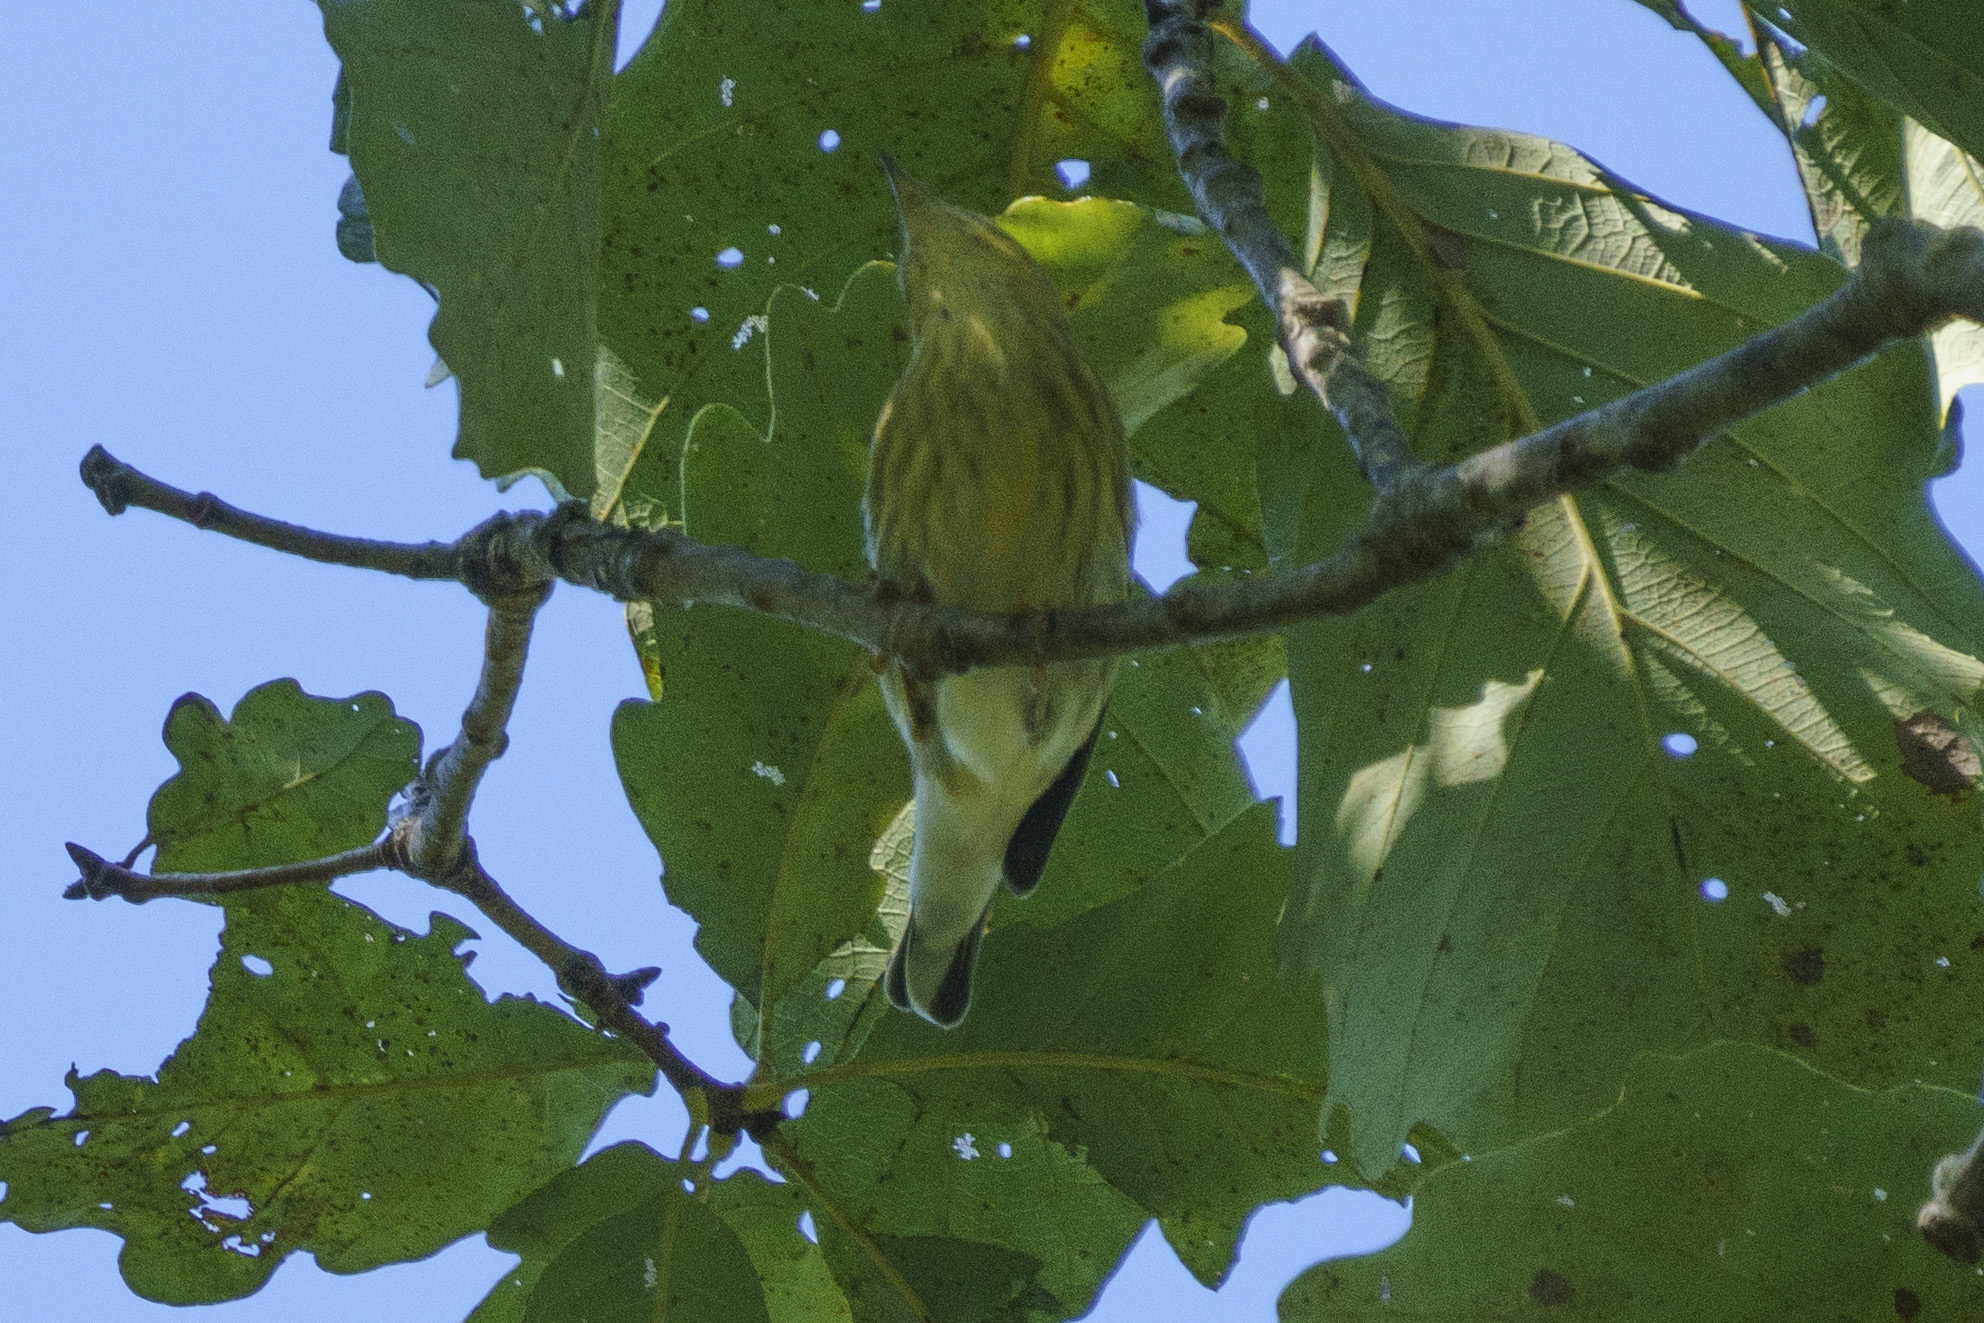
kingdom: Animalia
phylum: Chordata
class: Aves
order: Passeriformes
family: Parulidae
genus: Setophaga
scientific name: Setophaga tigrina
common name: Cape may warbler
